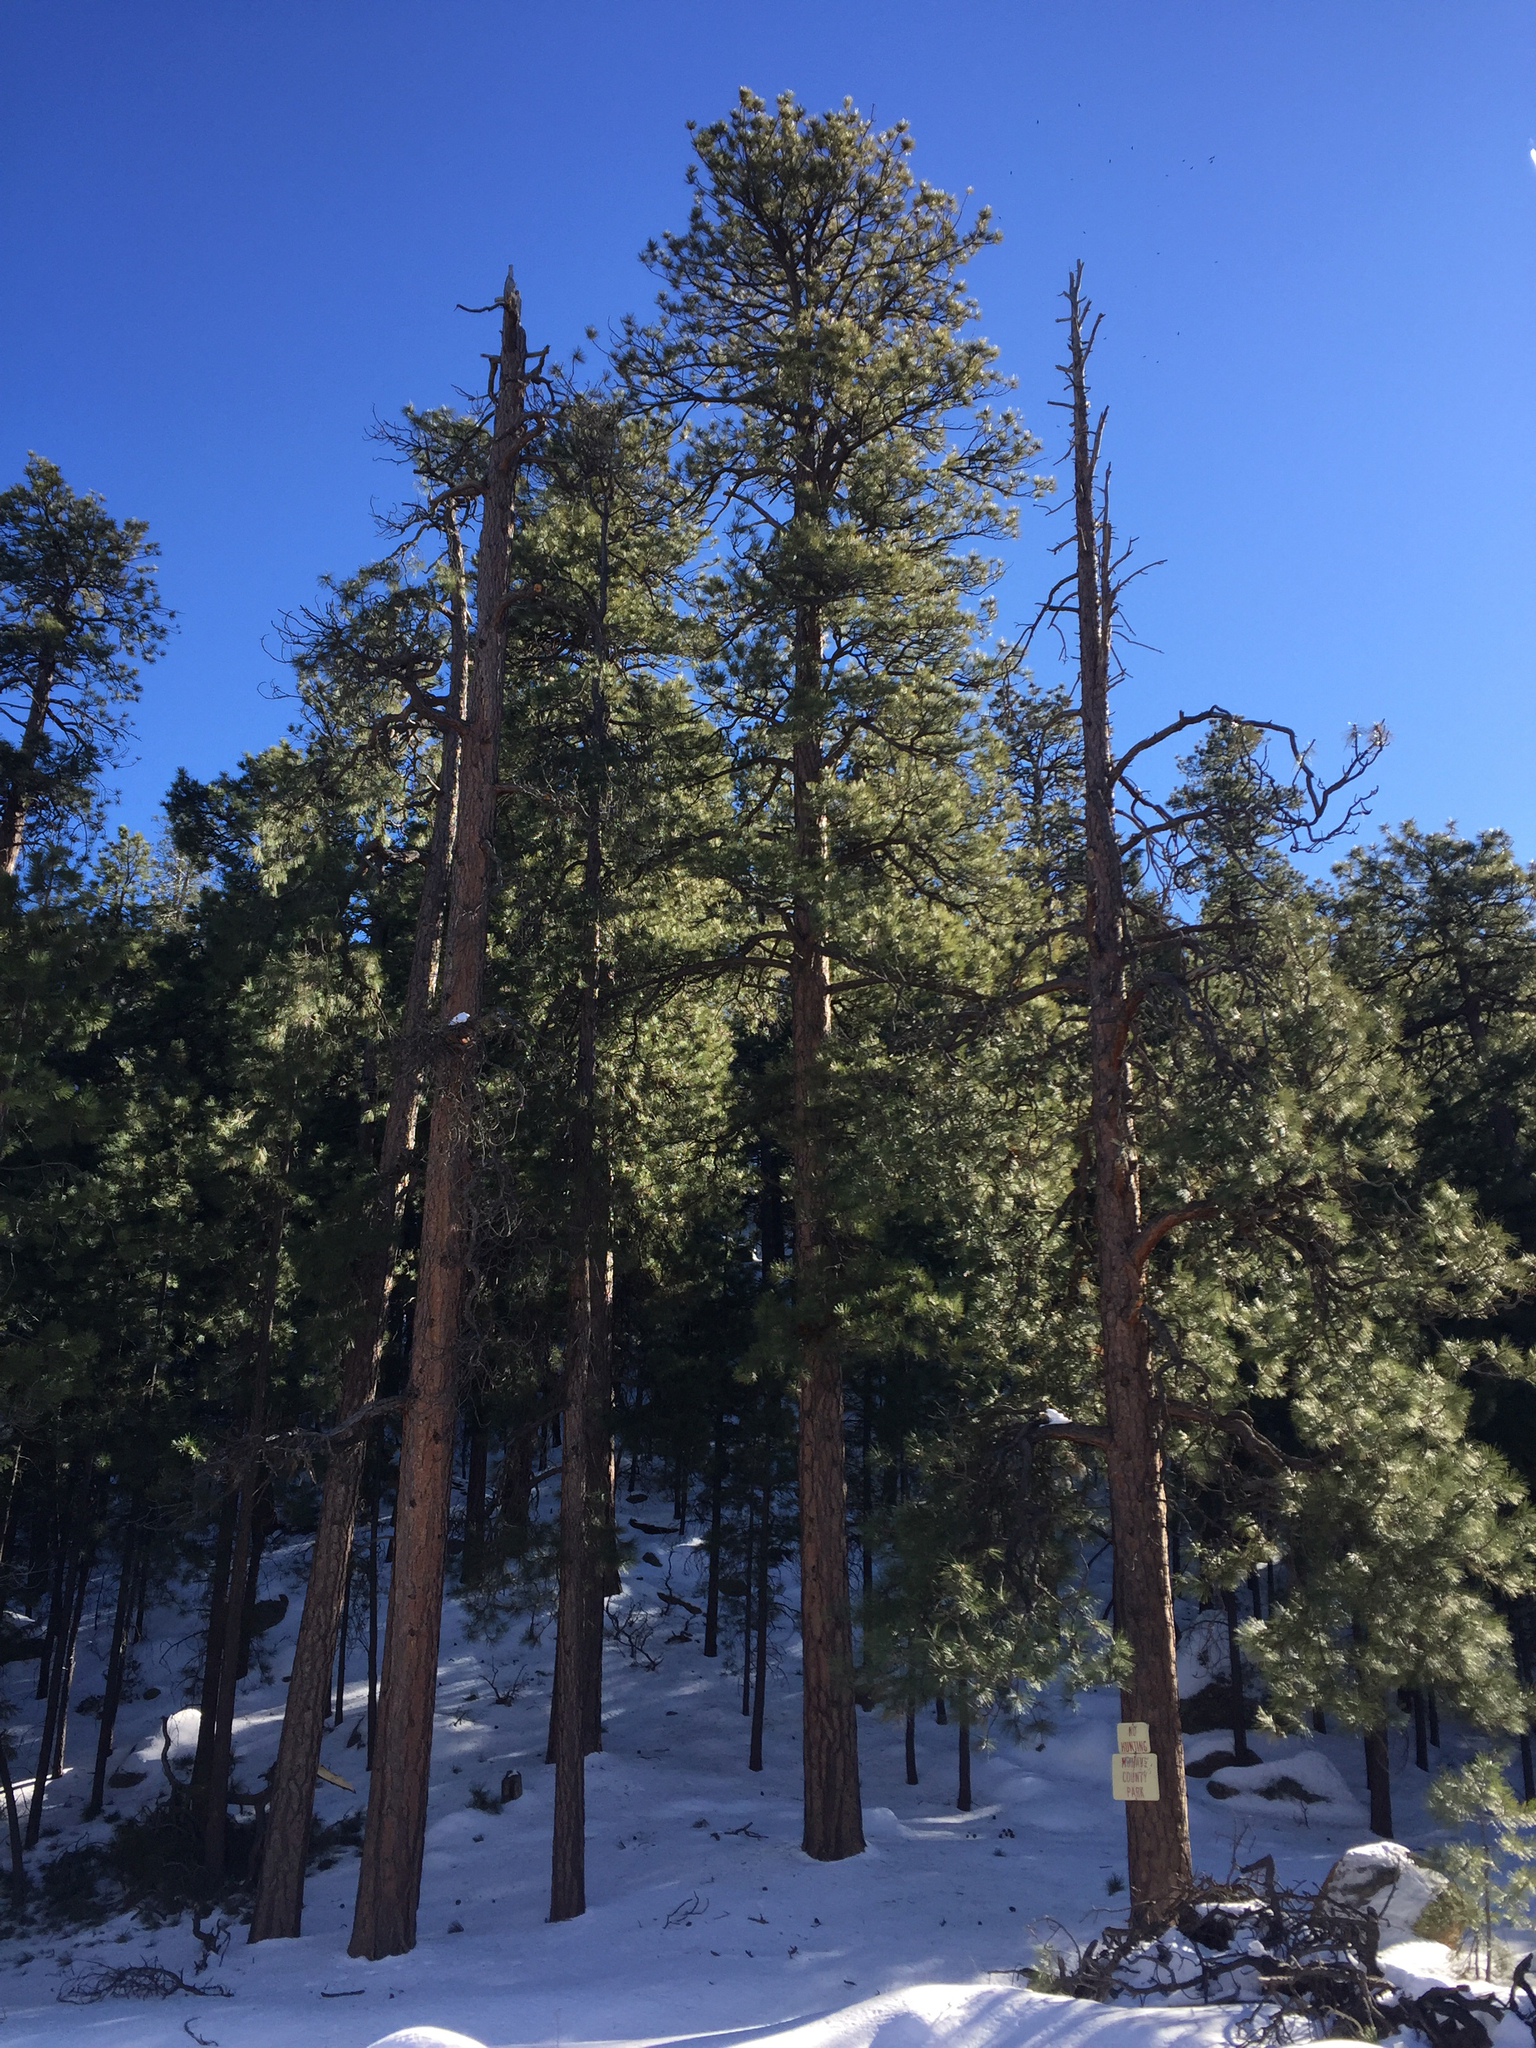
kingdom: Plantae
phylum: Tracheophyta
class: Pinopsida
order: Pinales
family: Pinaceae
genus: Pinus
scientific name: Pinus ponderosa
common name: Western yellow-pine
